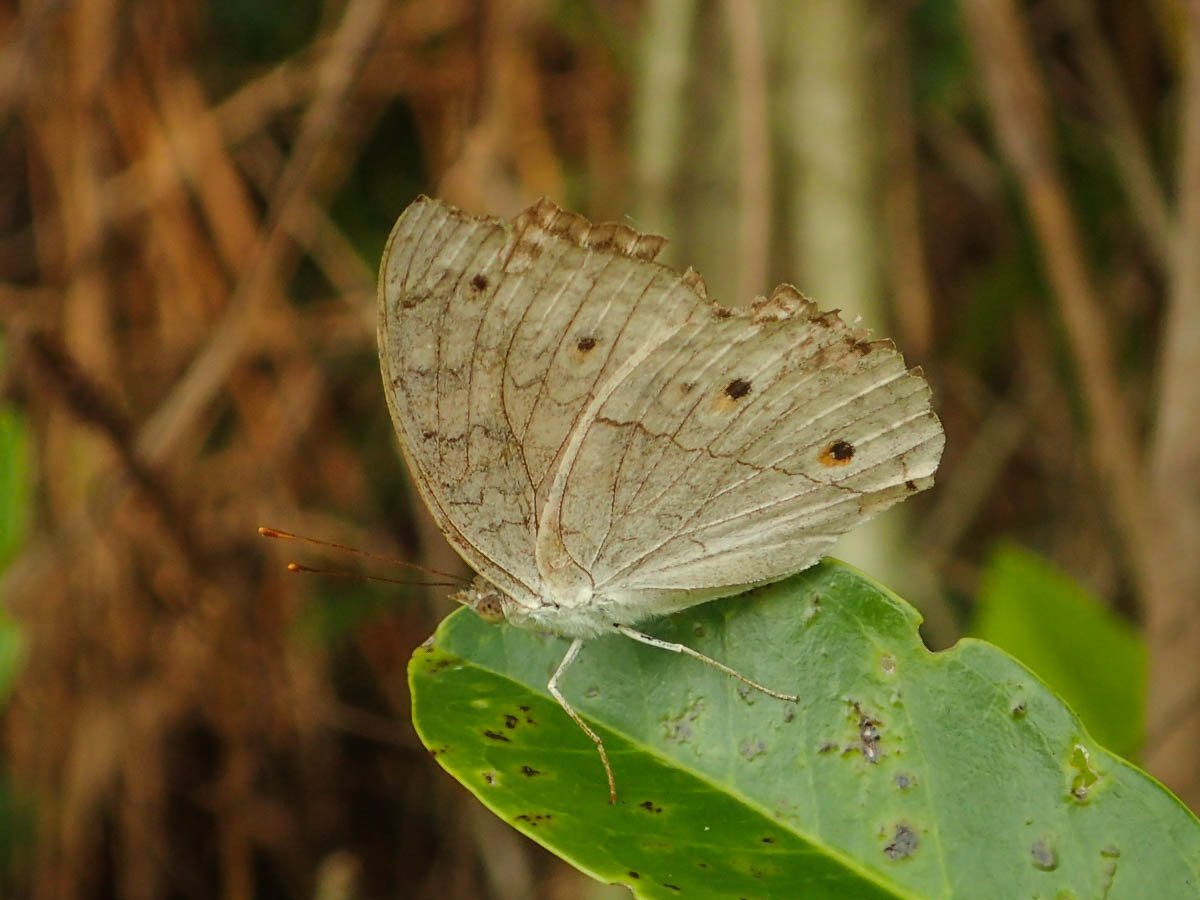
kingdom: Animalia
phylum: Arthropoda
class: Insecta
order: Lepidoptera
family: Nymphalidae
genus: Junonia
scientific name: Junonia atlites
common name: Grey pansy
